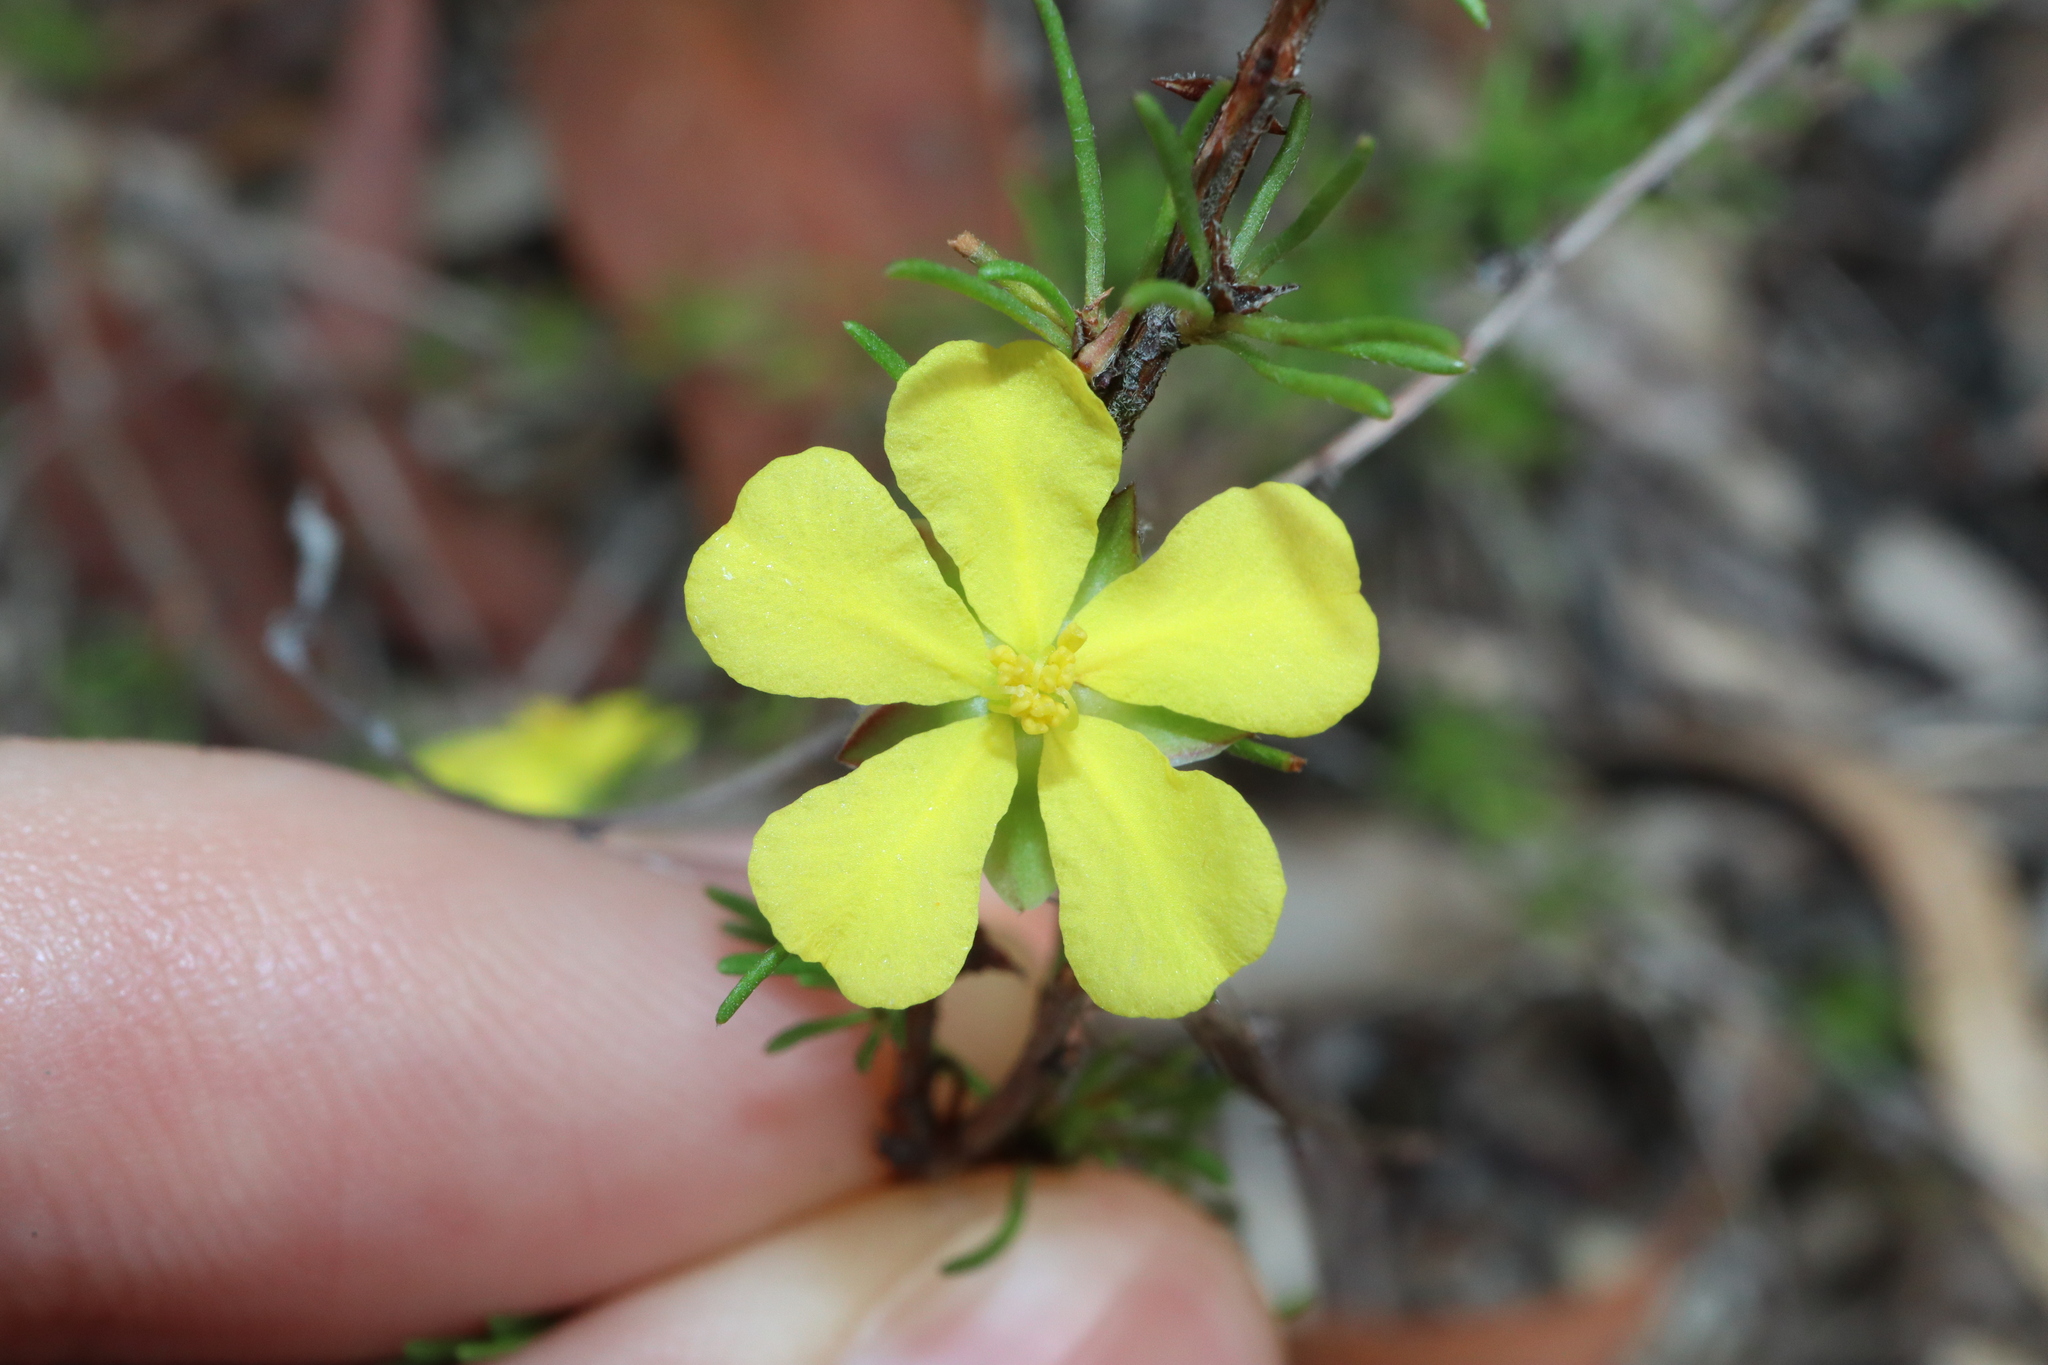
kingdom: Plantae
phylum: Tracheophyta
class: Magnoliopsida
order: Dilleniales
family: Dilleniaceae
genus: Hibbertia
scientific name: Hibbertia fasciculata
